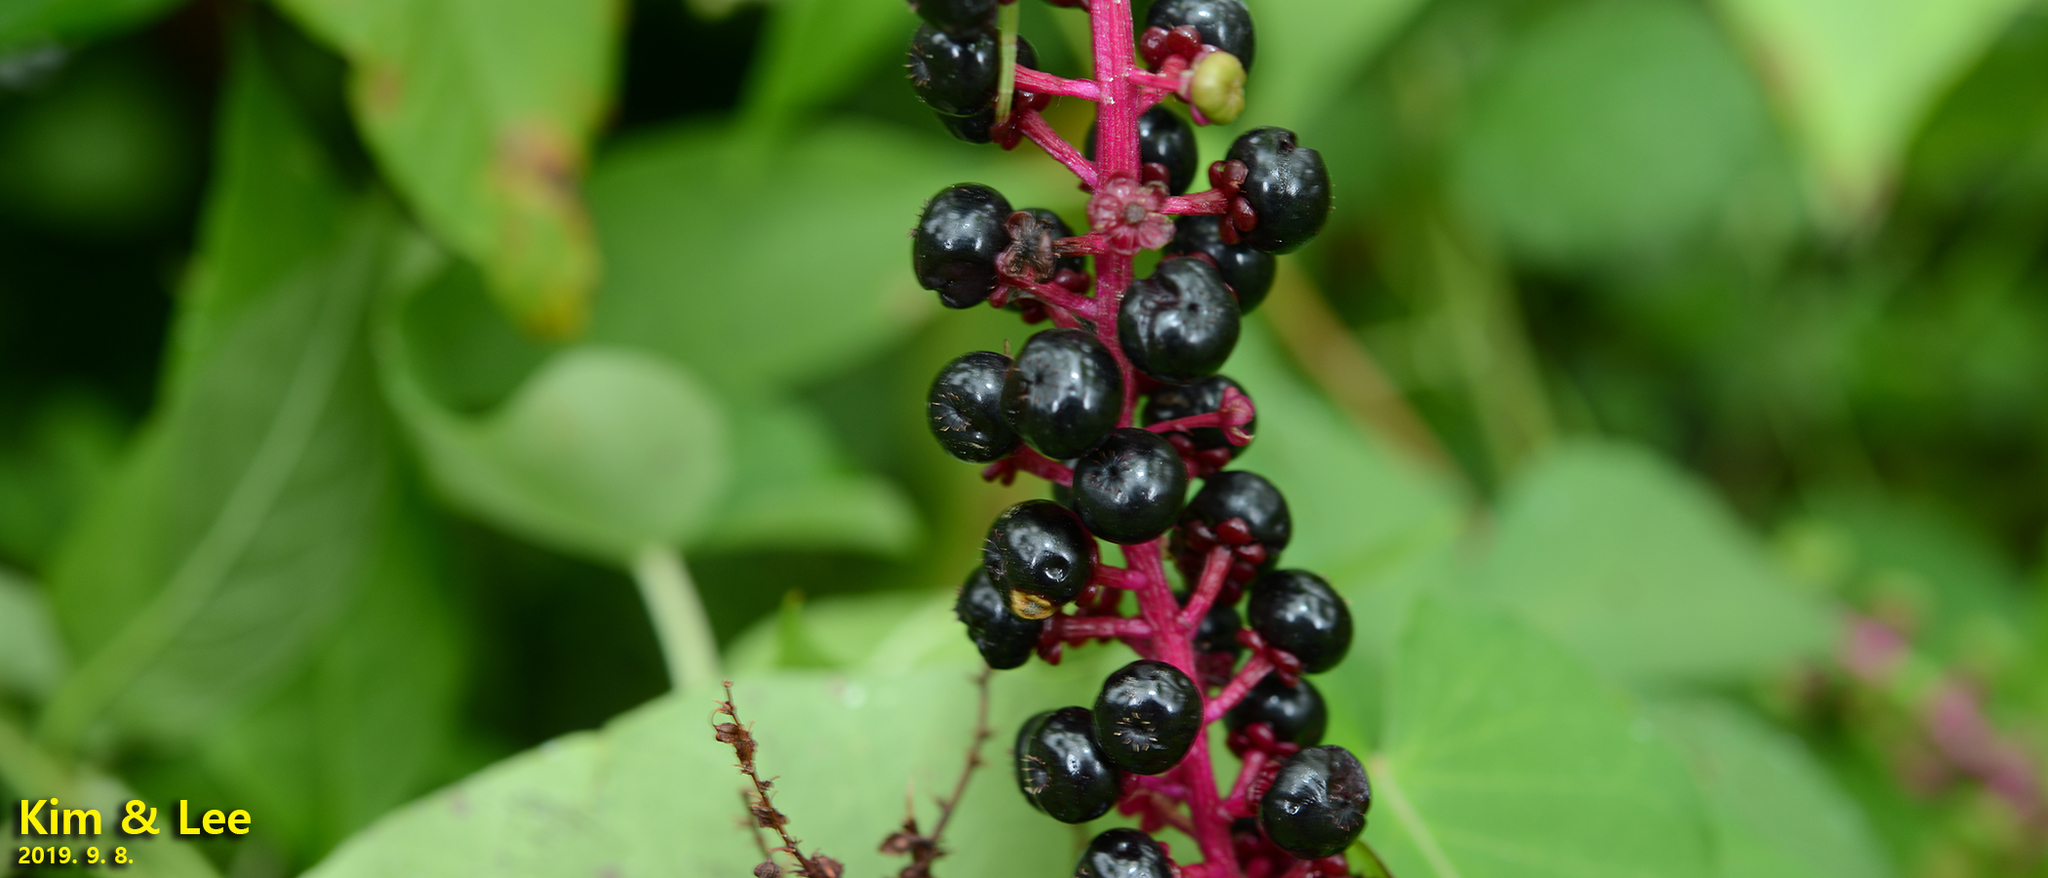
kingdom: Plantae
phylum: Tracheophyta
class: Magnoliopsida
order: Caryophyllales
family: Phytolaccaceae
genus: Phytolacca
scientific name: Phytolacca americana
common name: American pokeweed
